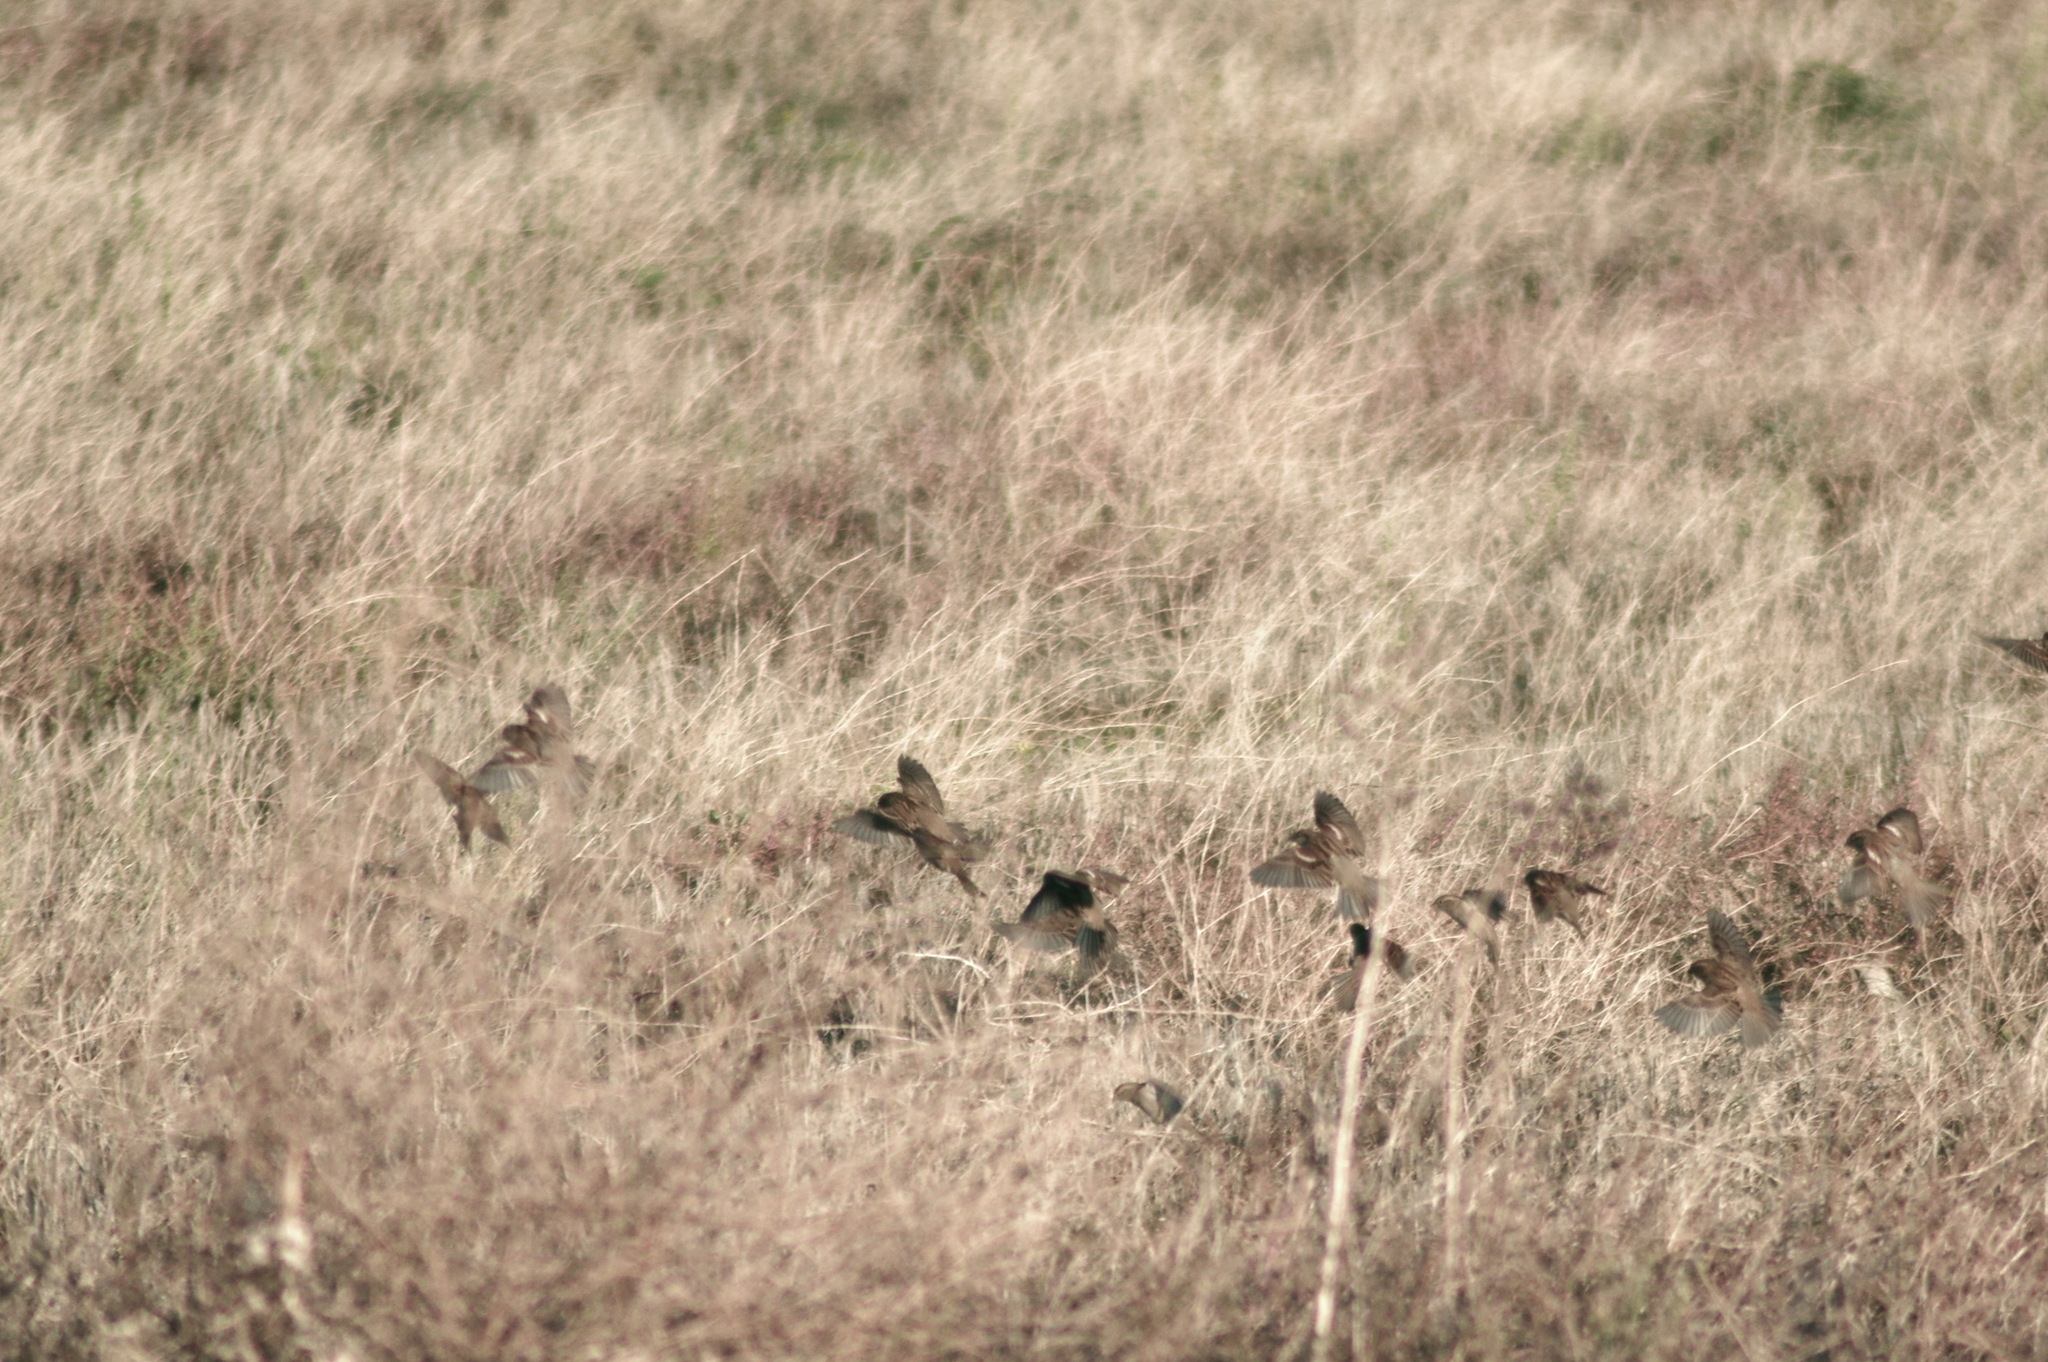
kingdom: Animalia
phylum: Chordata
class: Aves
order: Passeriformes
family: Passeridae
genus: Passer
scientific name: Passer domesticus
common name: House sparrow
